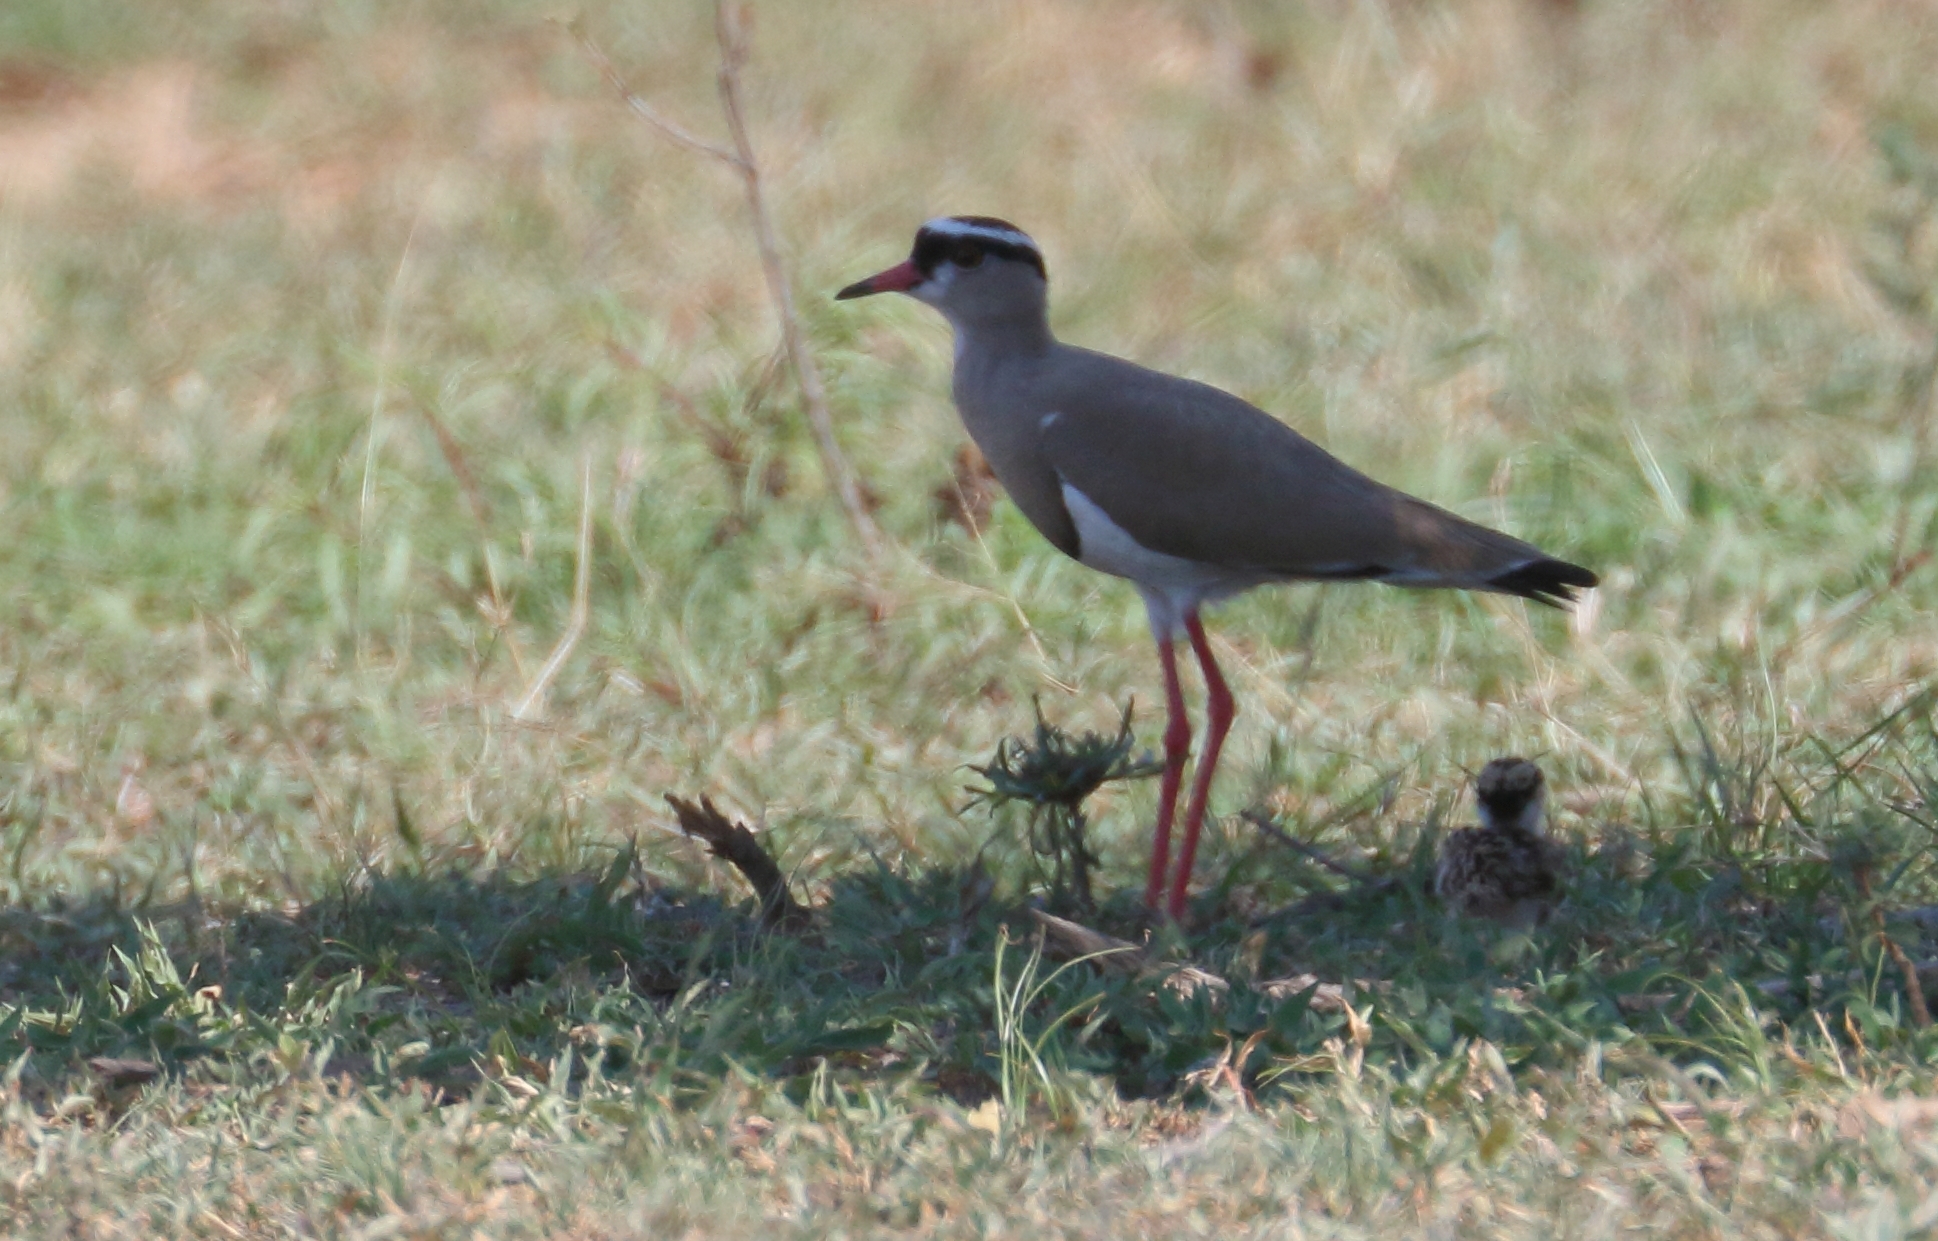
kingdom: Animalia
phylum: Chordata
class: Aves
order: Charadriiformes
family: Charadriidae
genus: Vanellus
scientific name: Vanellus coronatus
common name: Crowned lapwing
